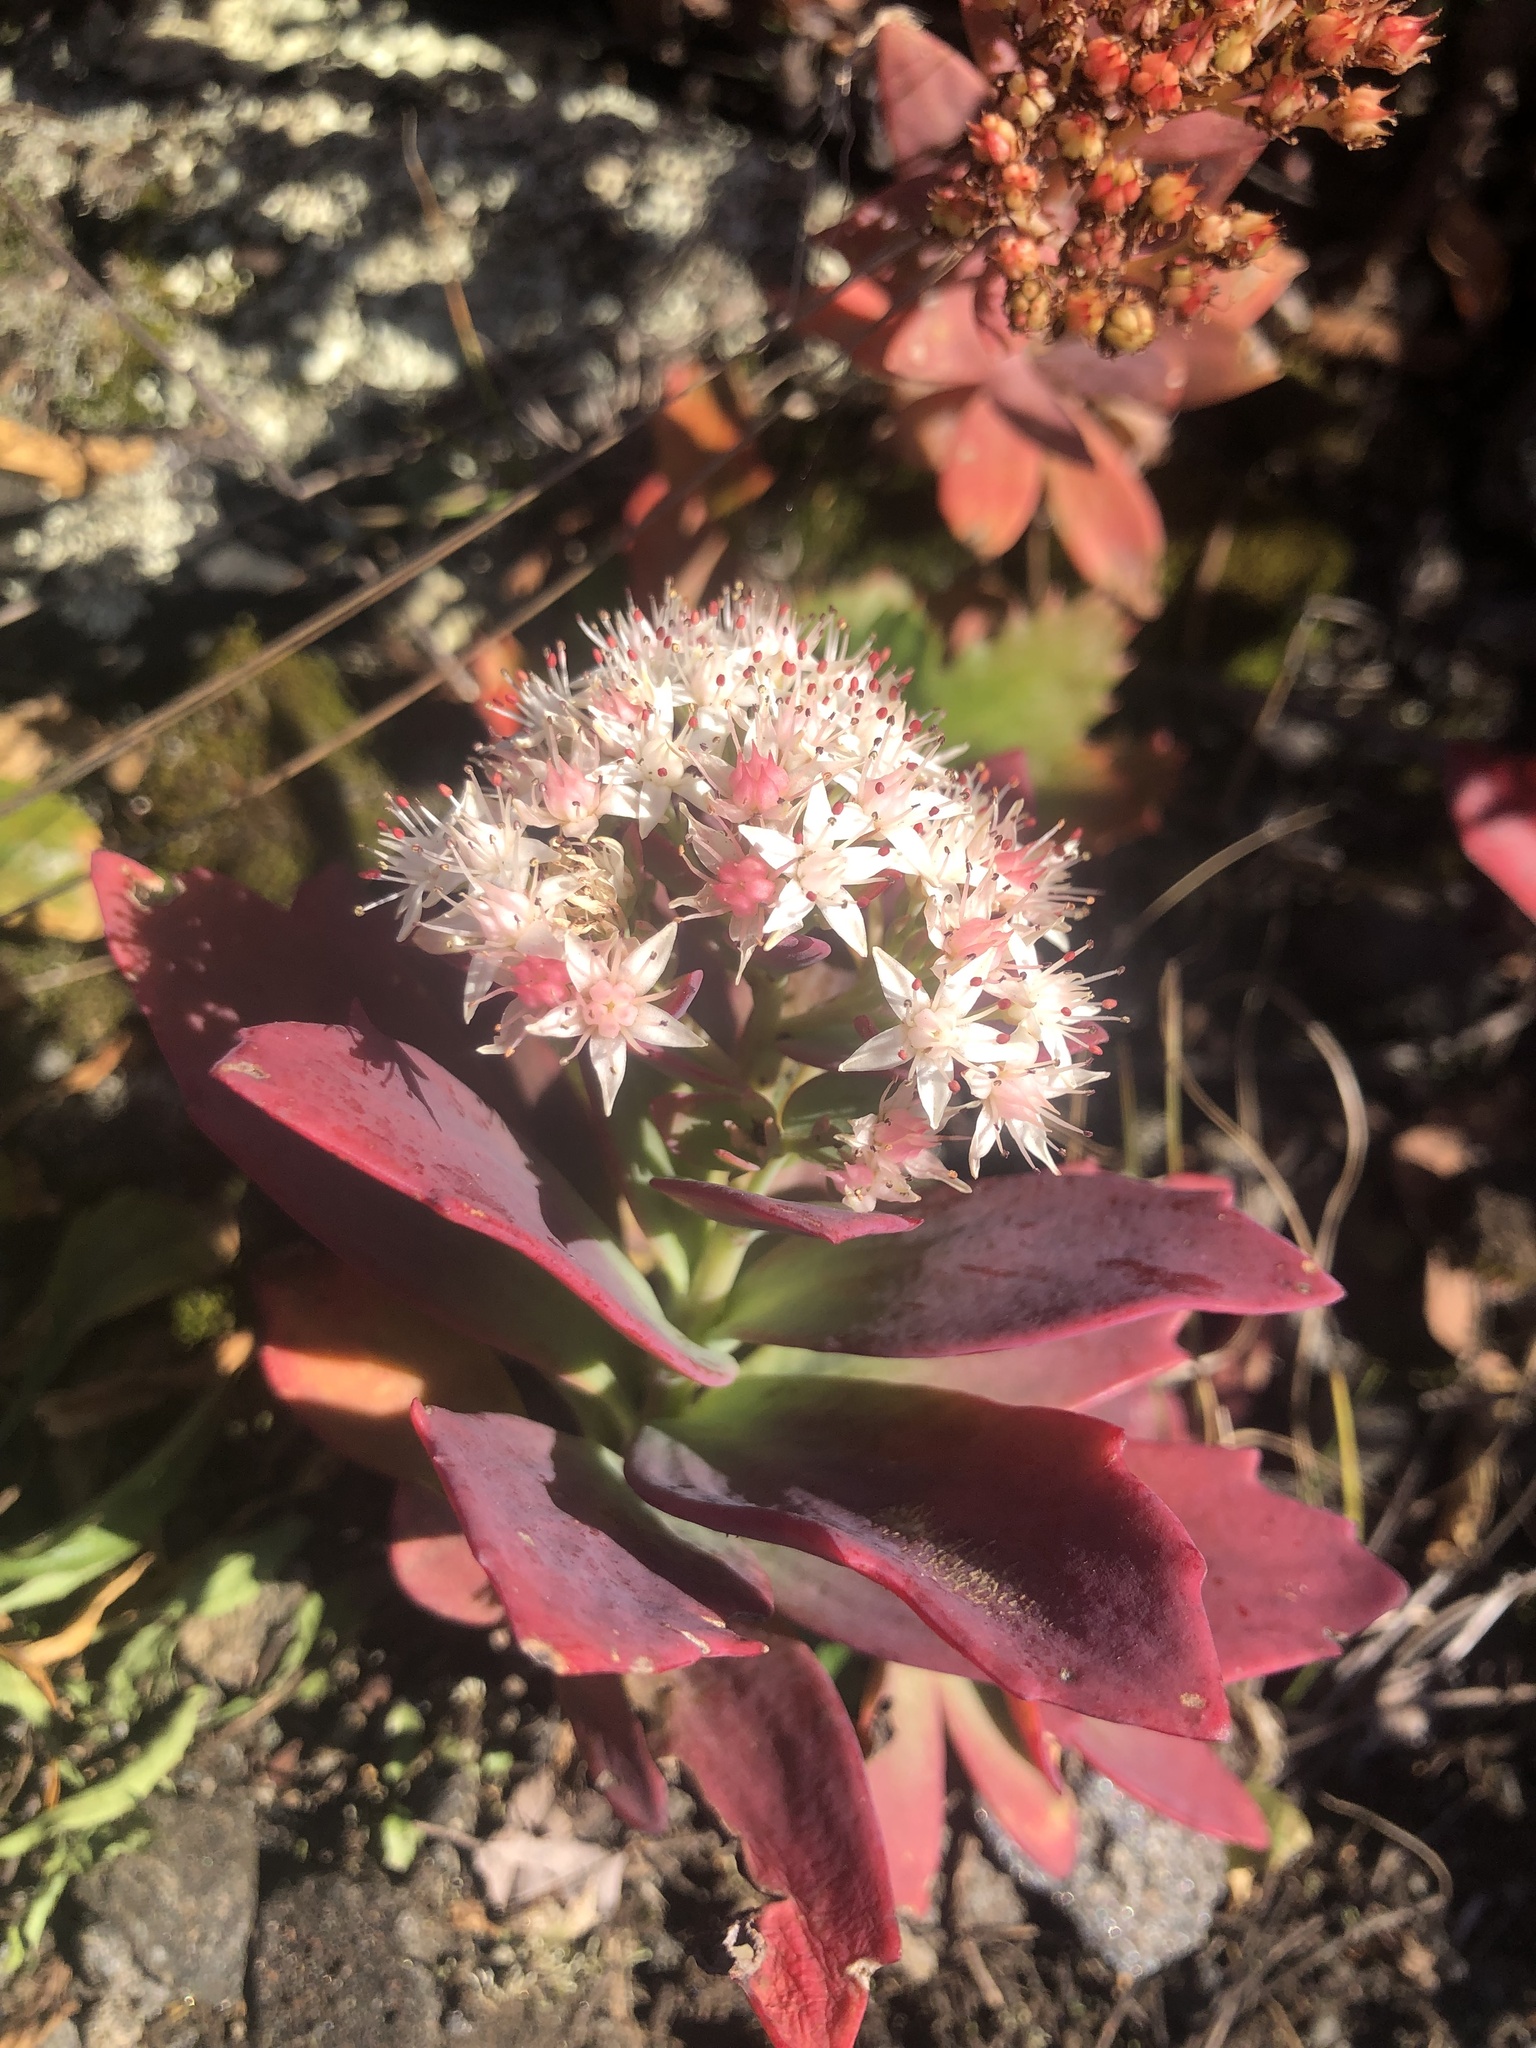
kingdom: Plantae
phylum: Tracheophyta
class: Magnoliopsida
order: Saxifragales
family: Crassulaceae
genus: Hylotelephium
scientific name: Hylotelephium telephioides
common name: Allegheny stonecrop
